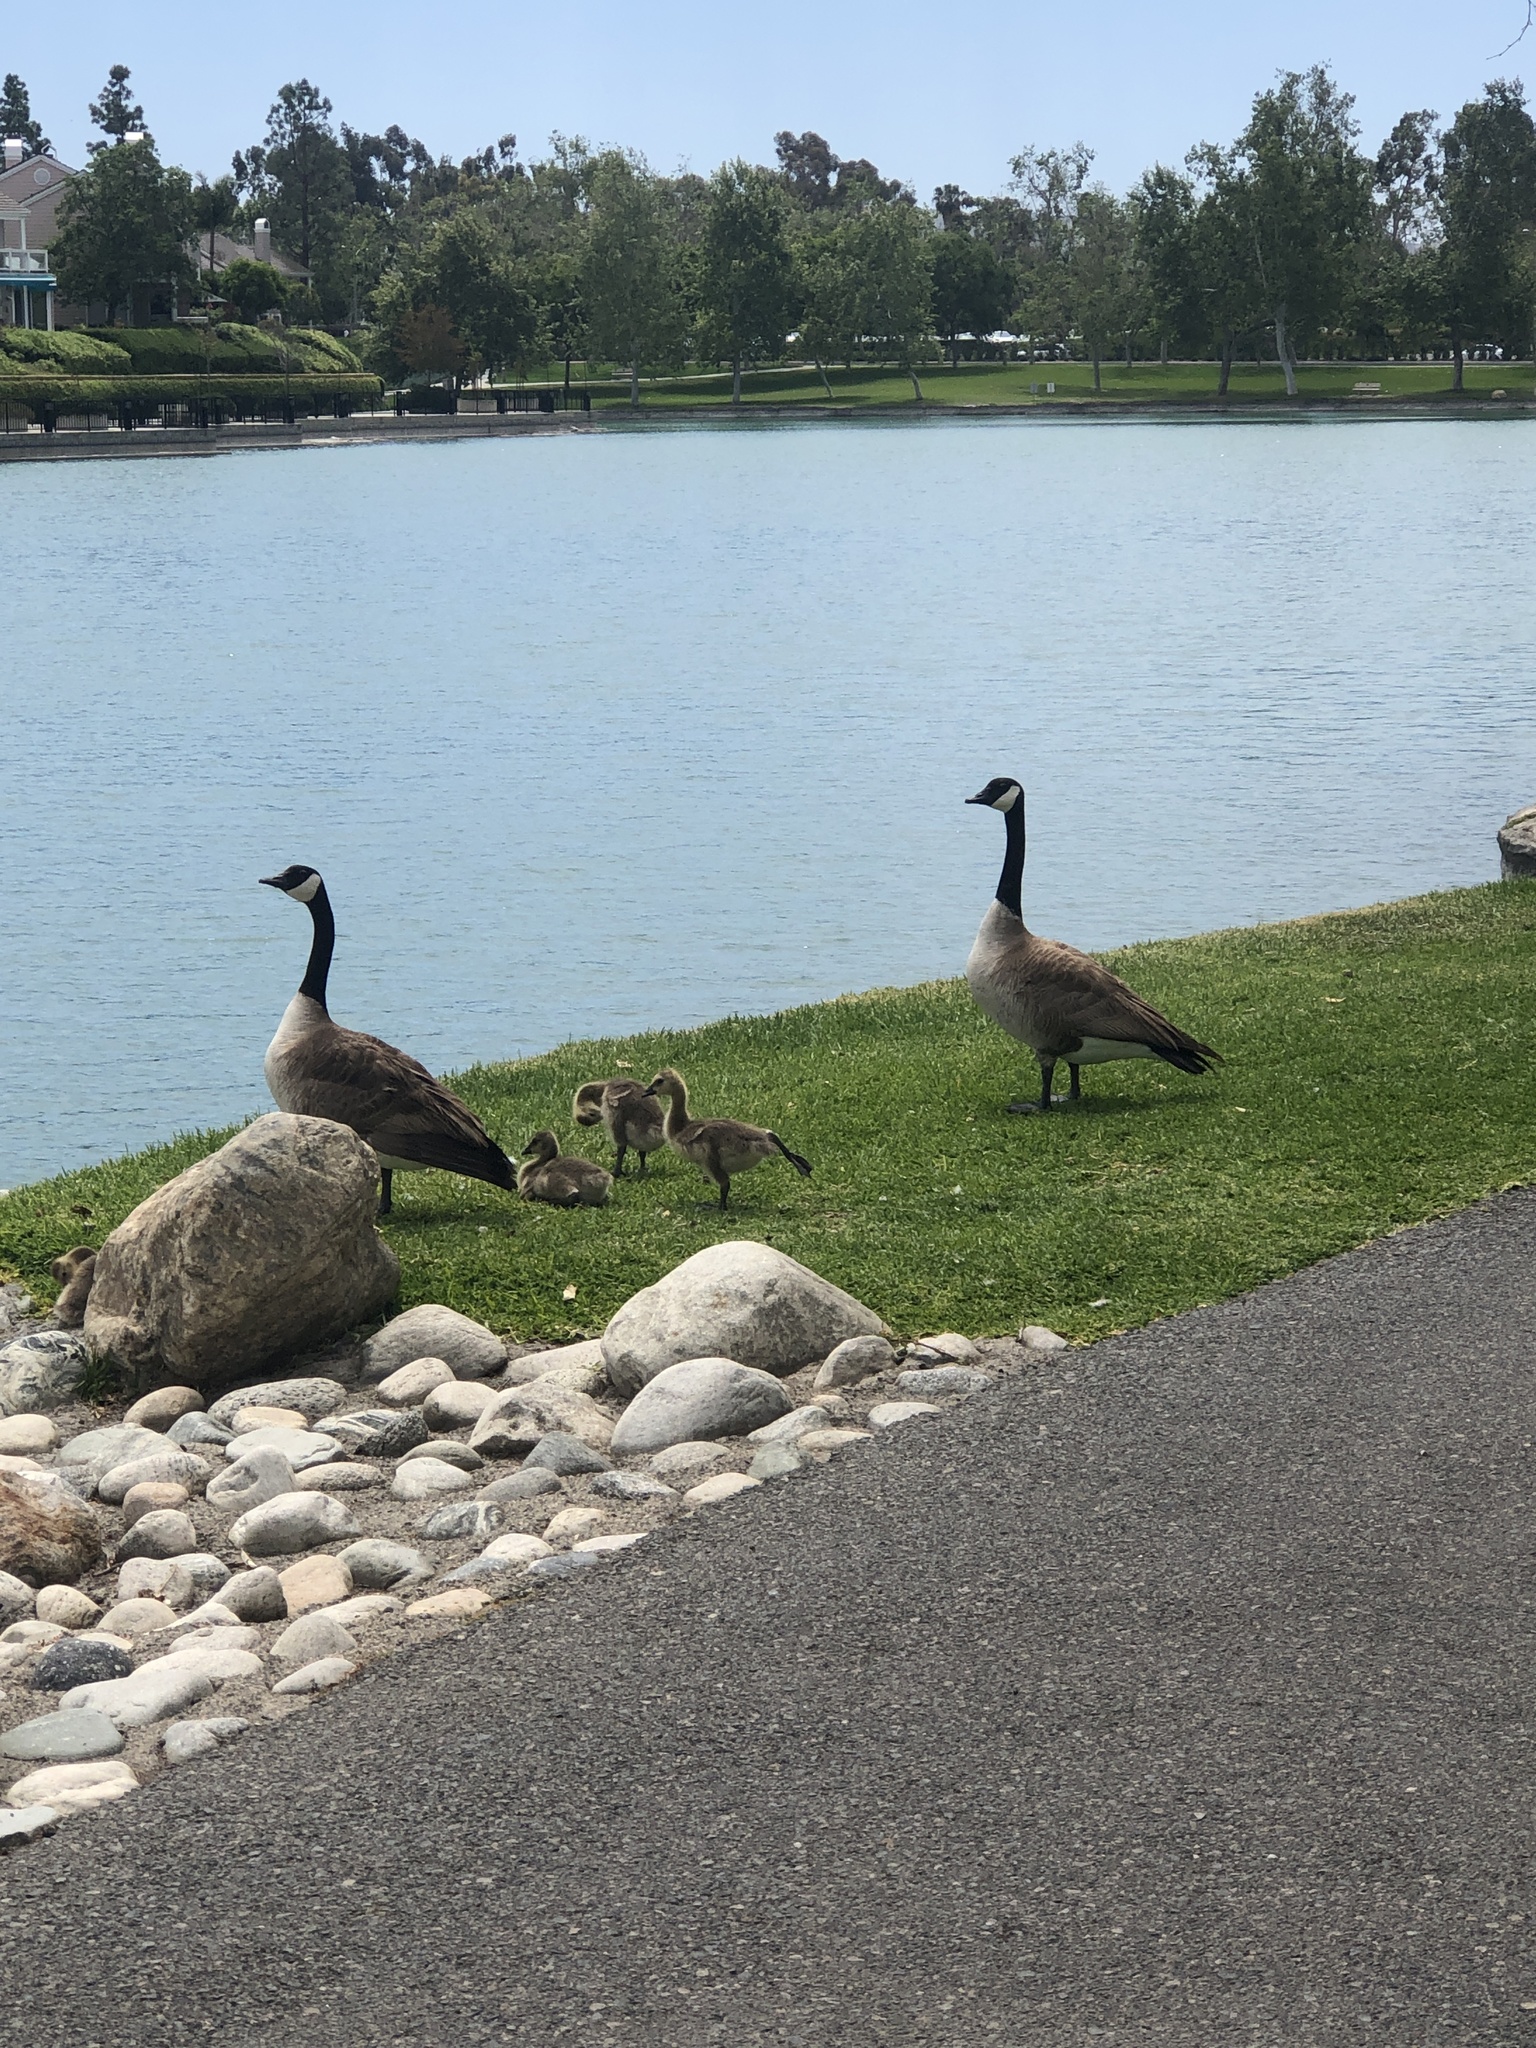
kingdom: Animalia
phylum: Chordata
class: Aves
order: Anseriformes
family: Anatidae
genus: Branta
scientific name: Branta canadensis
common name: Canada goose
